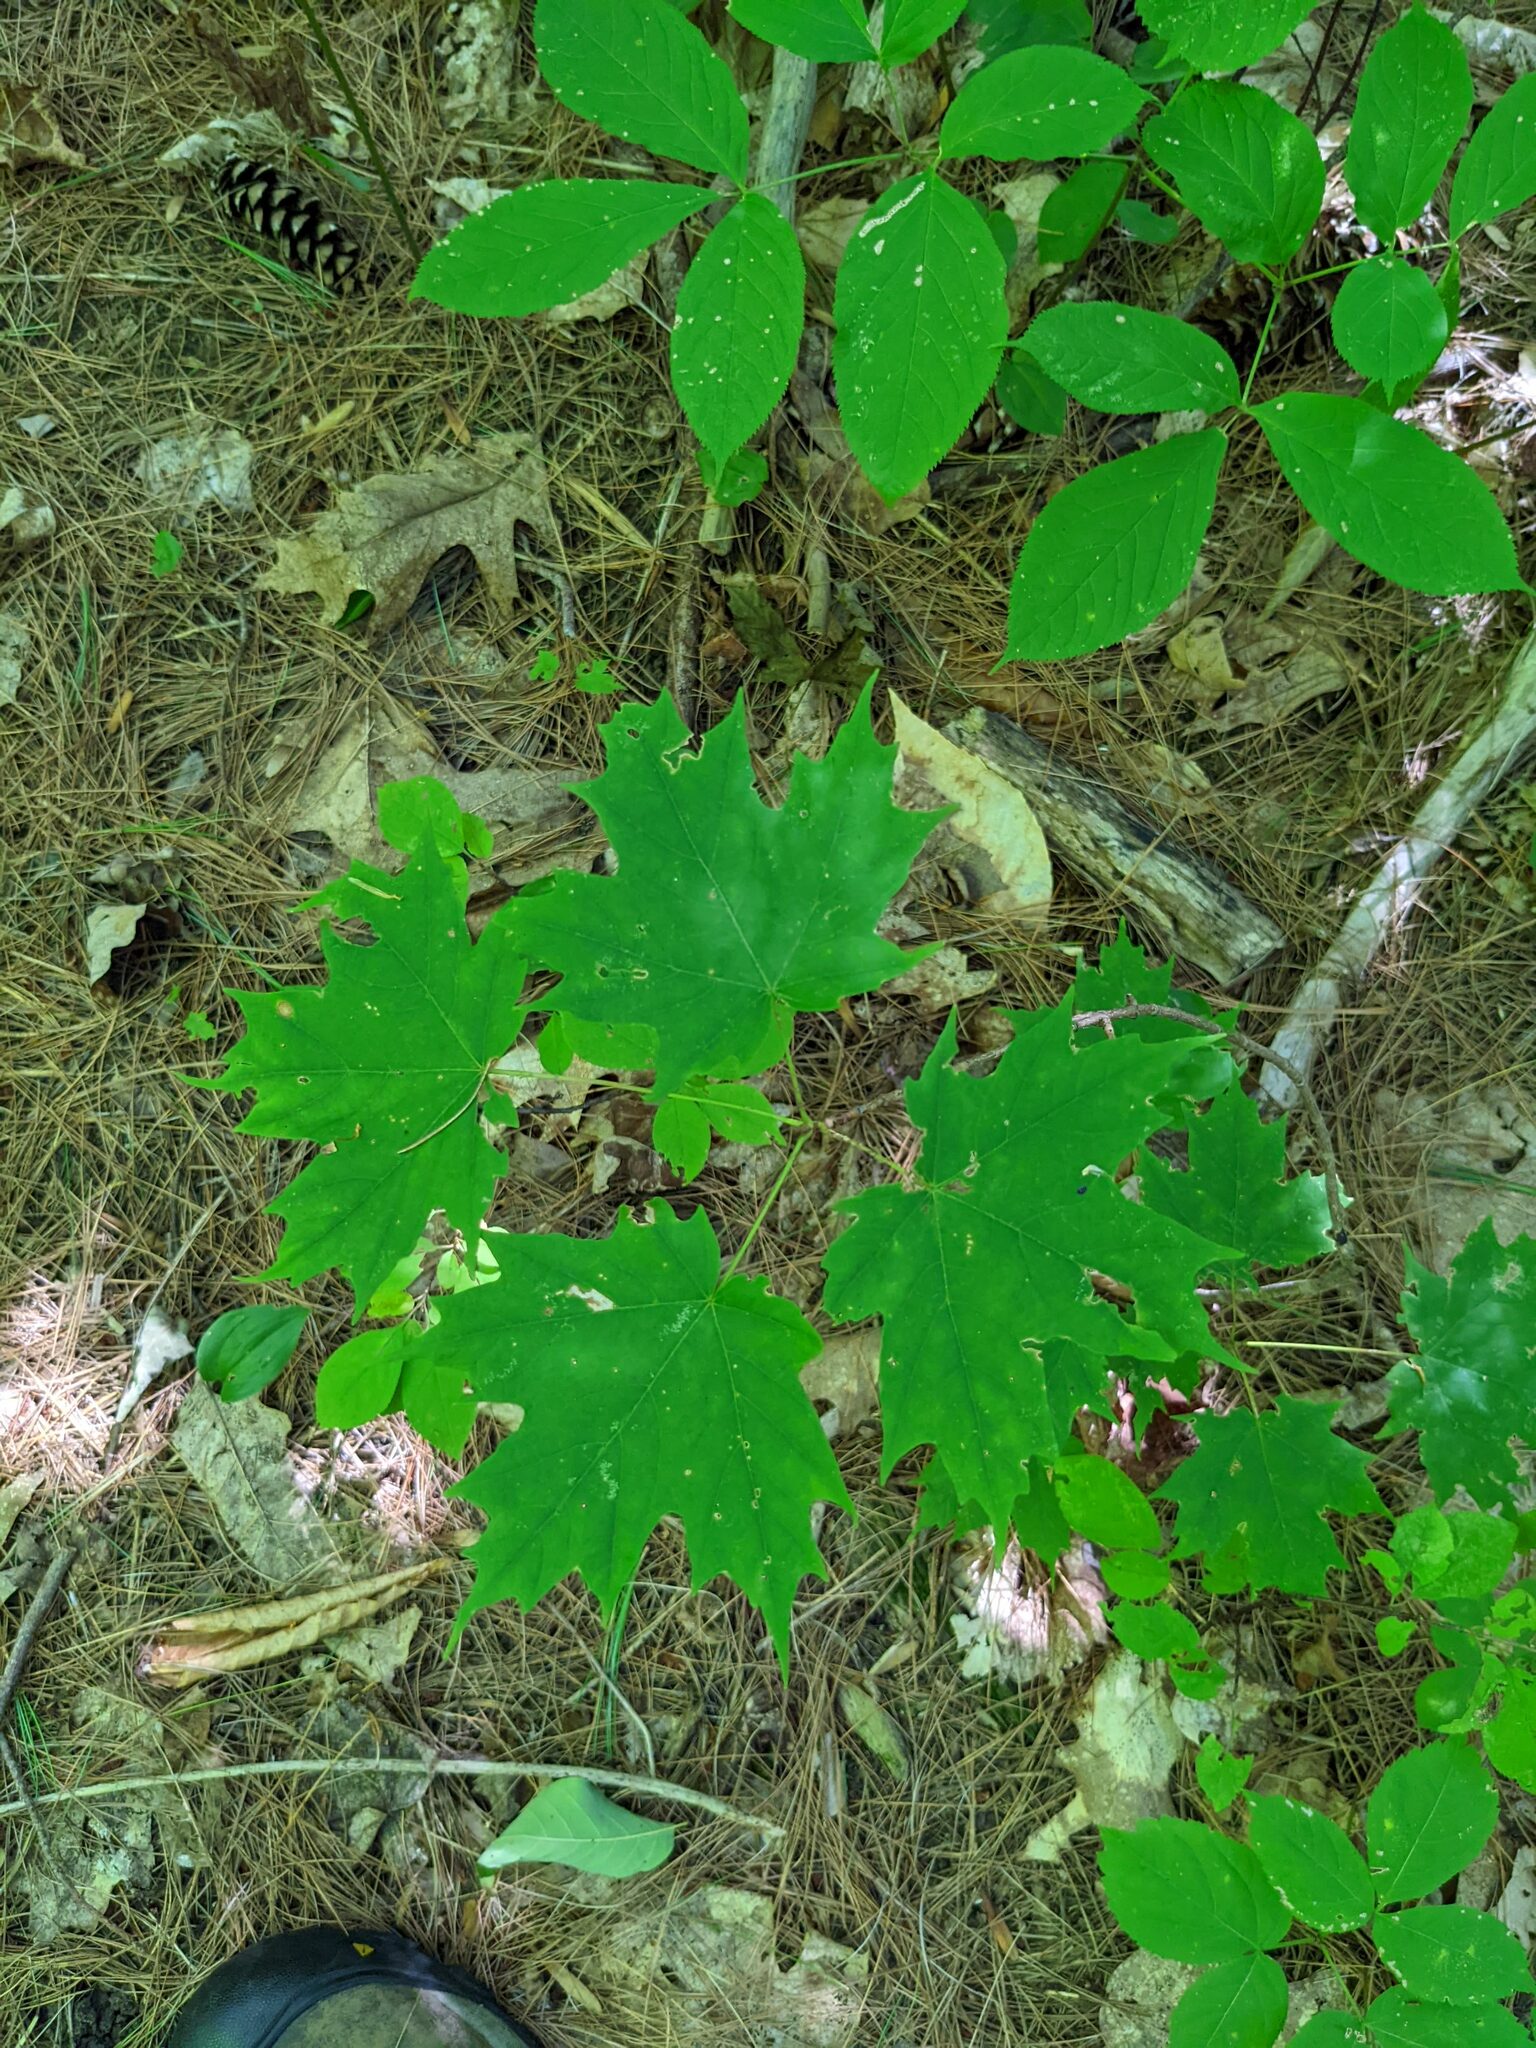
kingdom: Plantae
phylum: Tracheophyta
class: Magnoliopsida
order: Sapindales
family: Sapindaceae
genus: Acer
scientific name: Acer saccharum
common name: Sugar maple
